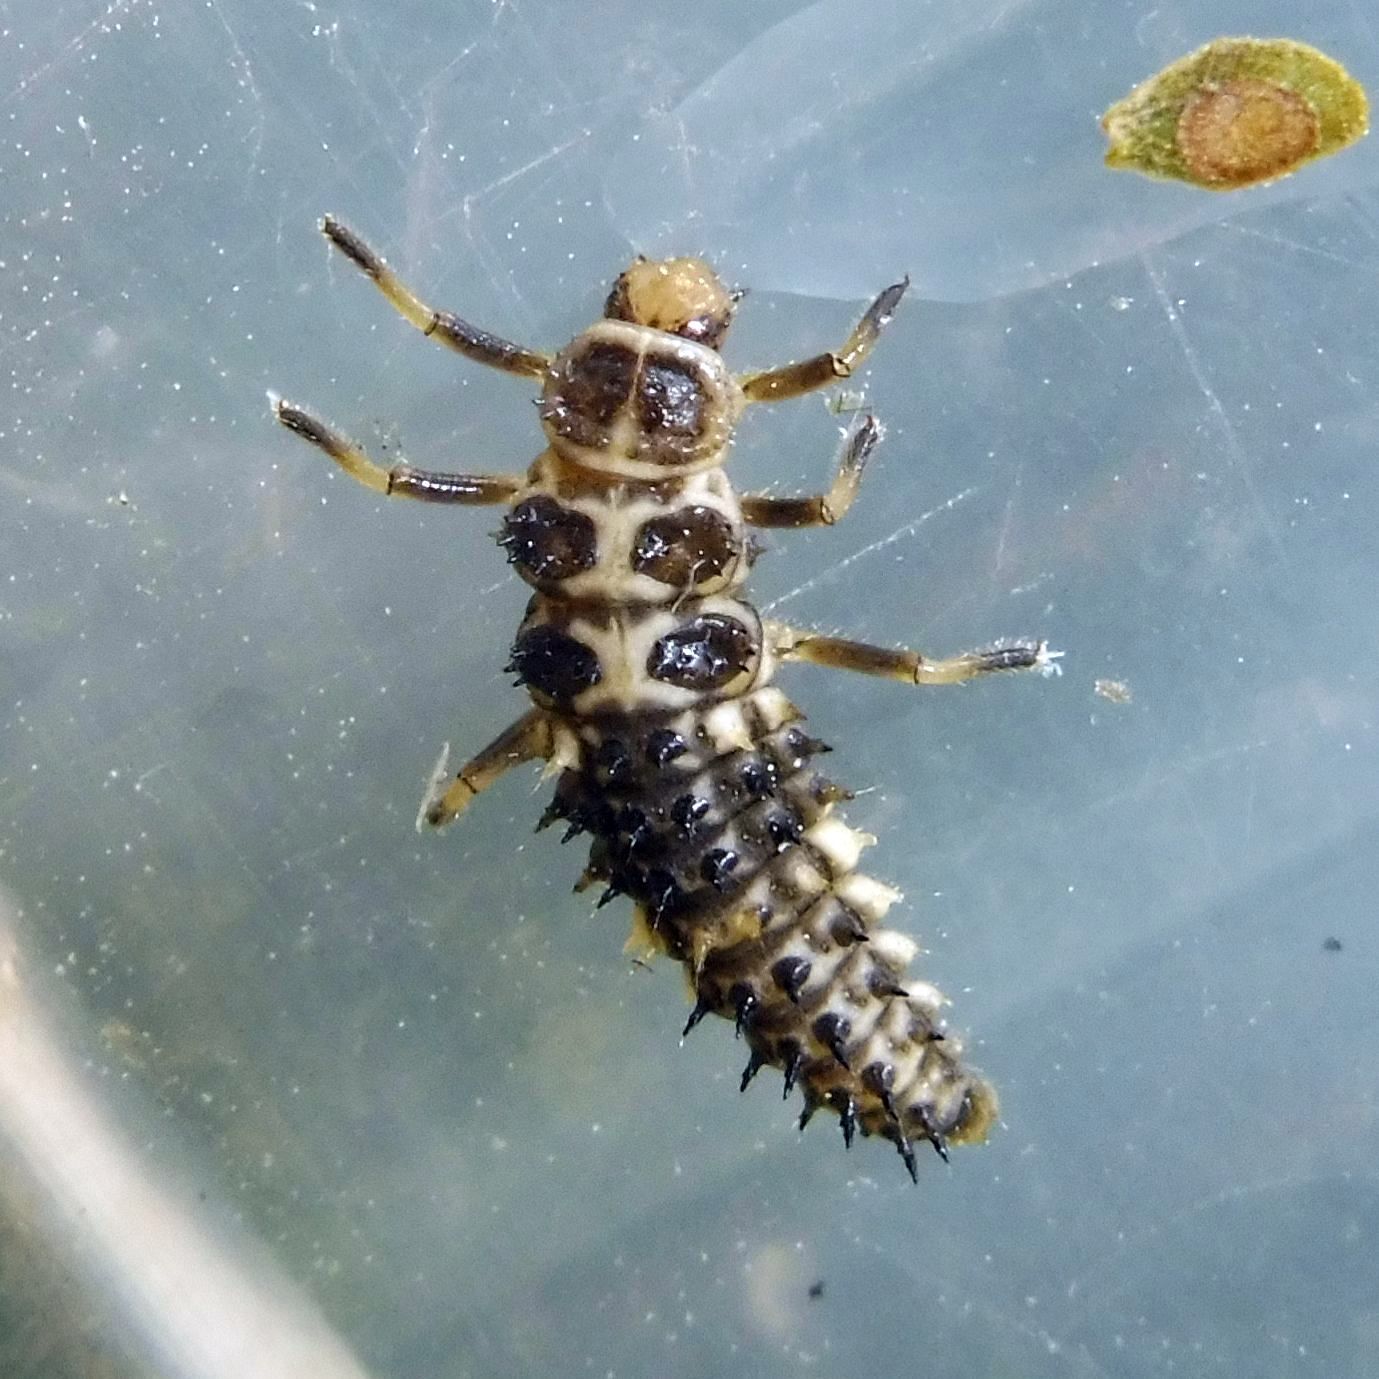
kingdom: Animalia
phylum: Arthropoda
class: Insecta
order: Coleoptera
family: Coccinellidae
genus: Calvia
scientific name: Calvia quatuordecimguttata
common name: Cream-spot ladybird
